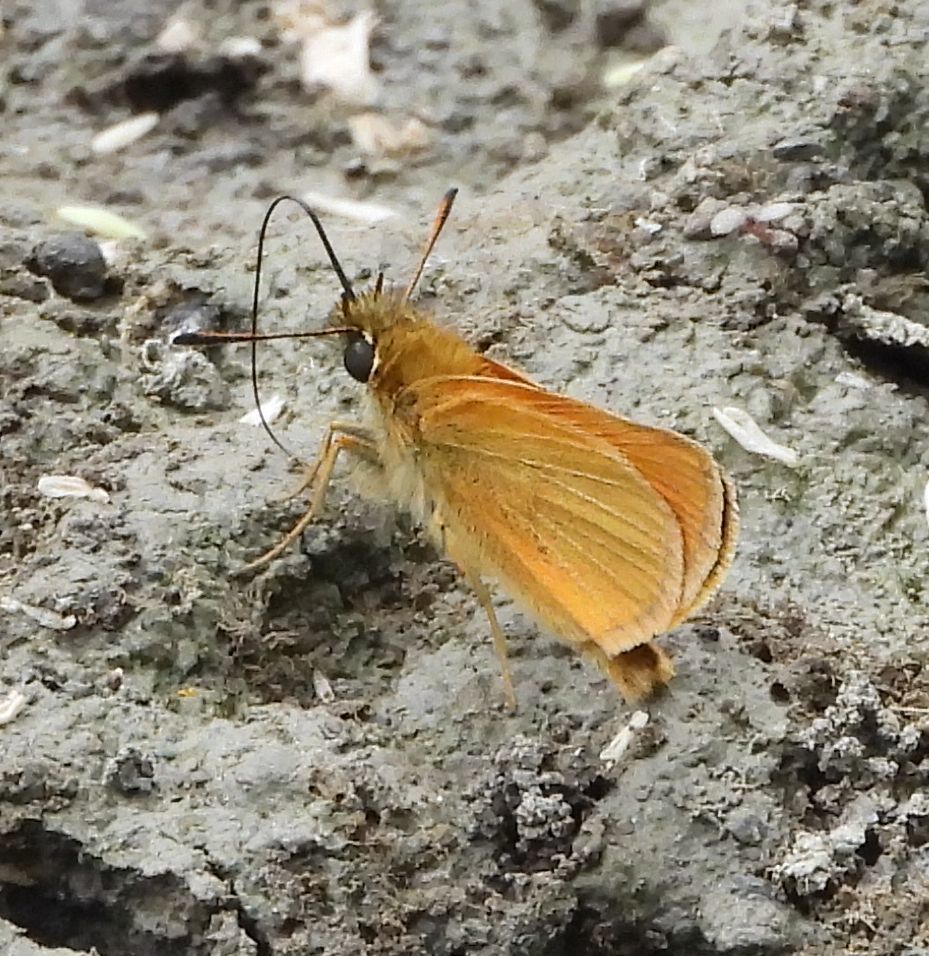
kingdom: Animalia
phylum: Arthropoda
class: Insecta
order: Lepidoptera
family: Hesperiidae
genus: Thymelicus
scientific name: Thymelicus lineola
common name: Essex skipper
